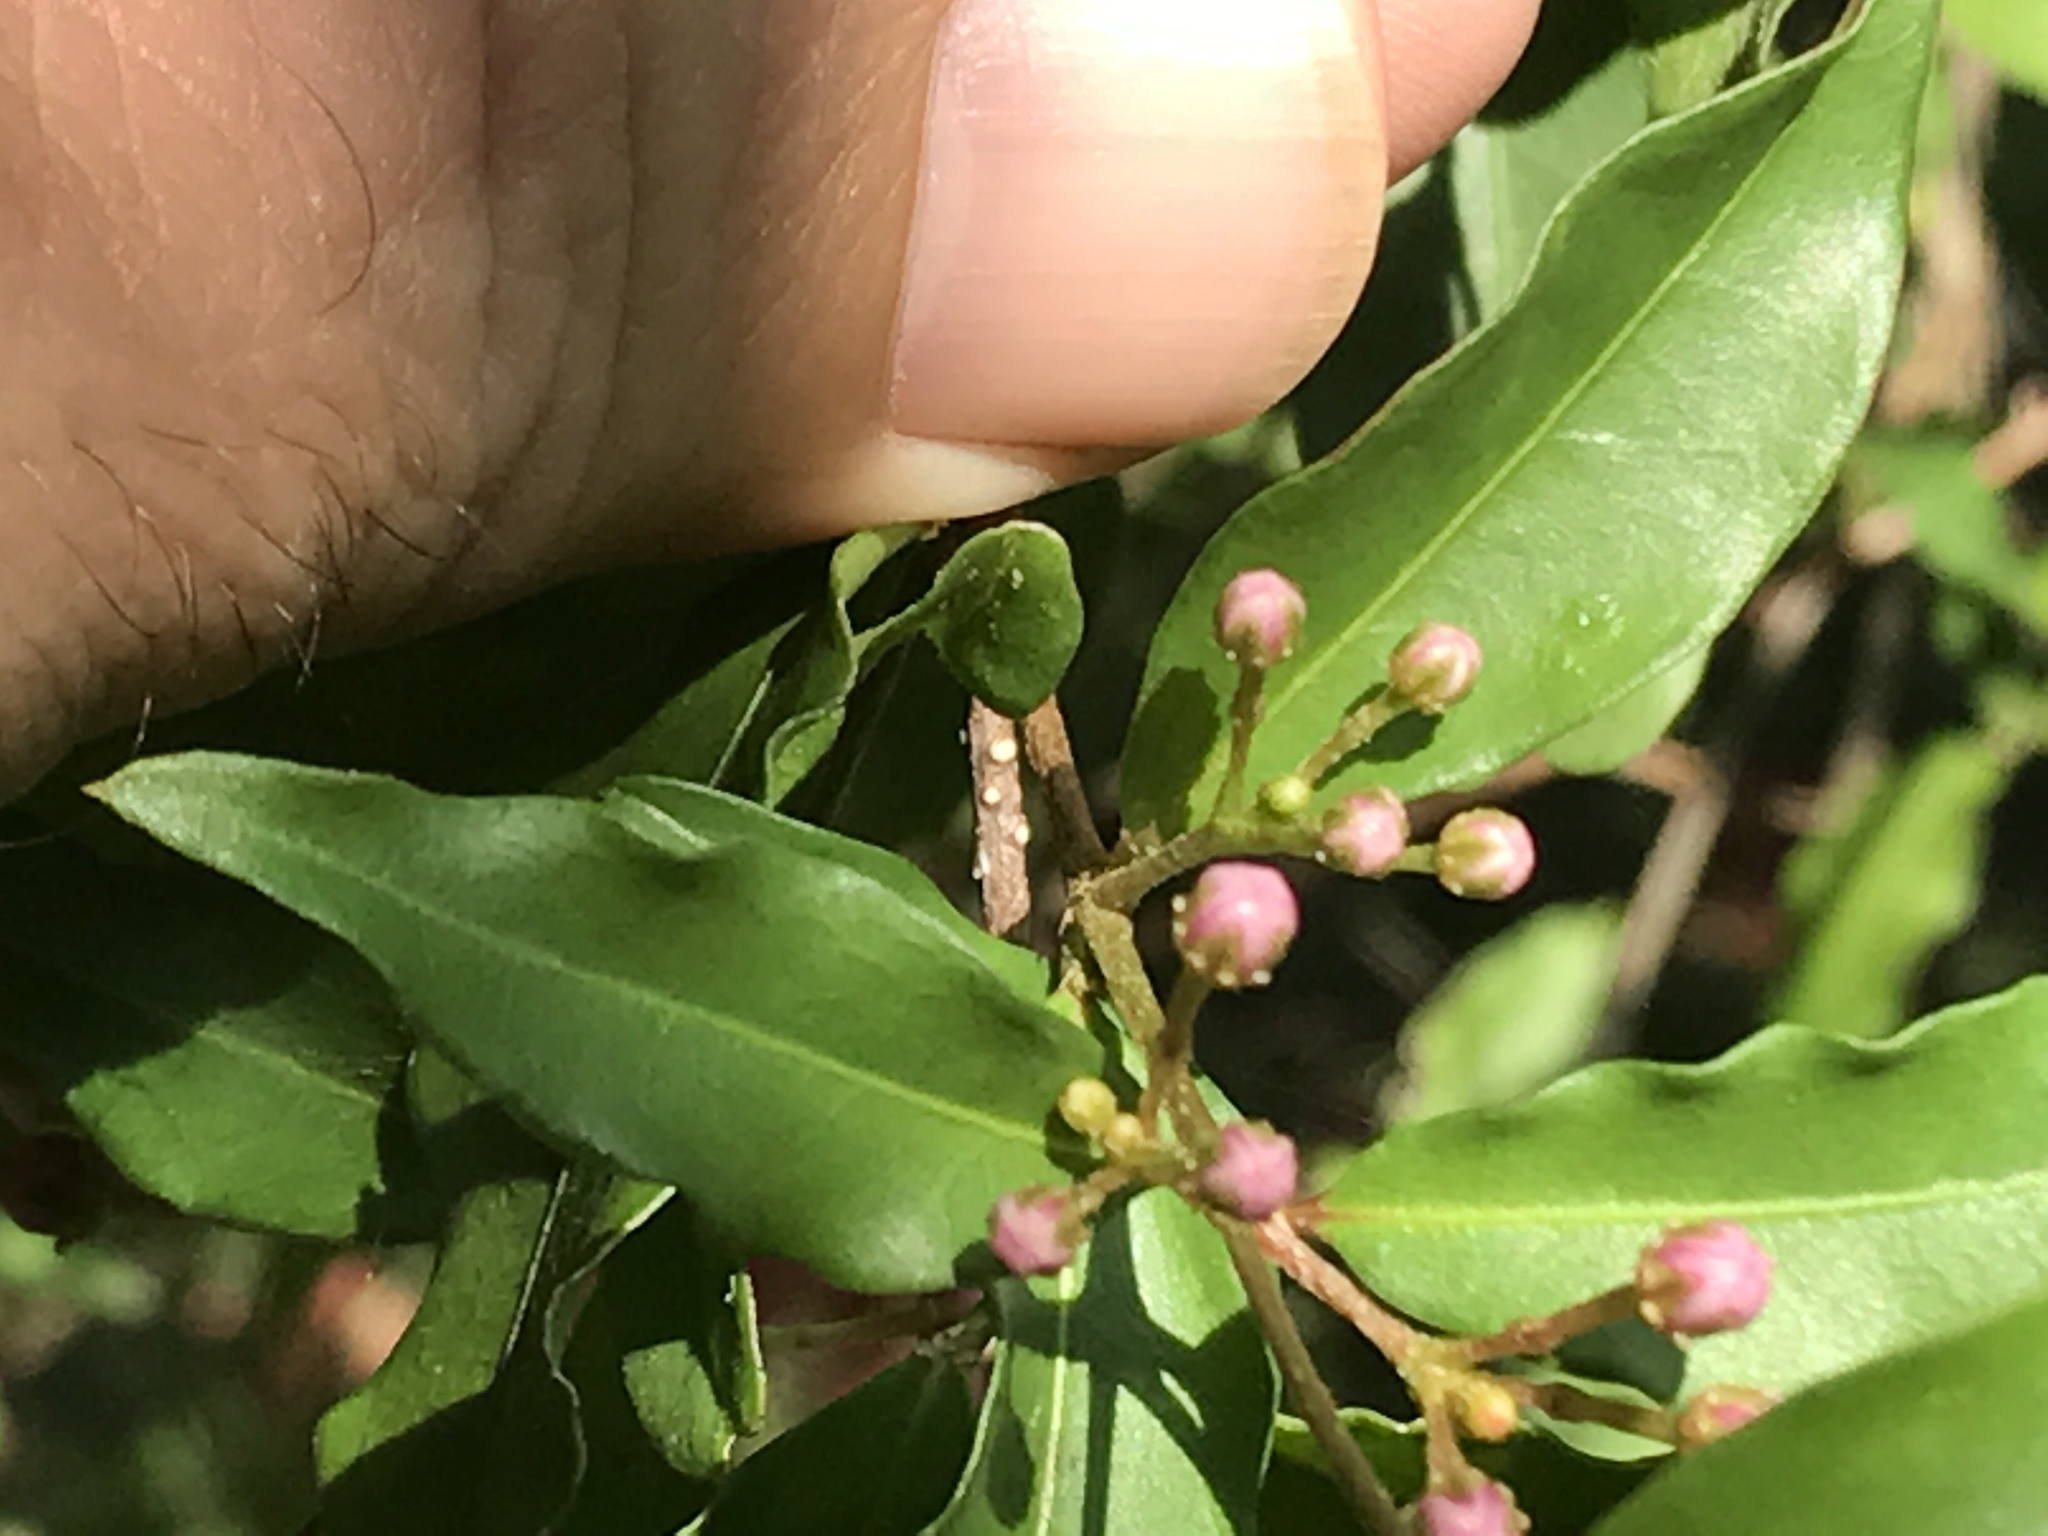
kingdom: Plantae
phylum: Tracheophyta
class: Magnoliopsida
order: Malpighiales
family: Malpighiaceae
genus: Malpighia
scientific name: Malpighia glabra
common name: Barbados cherry
